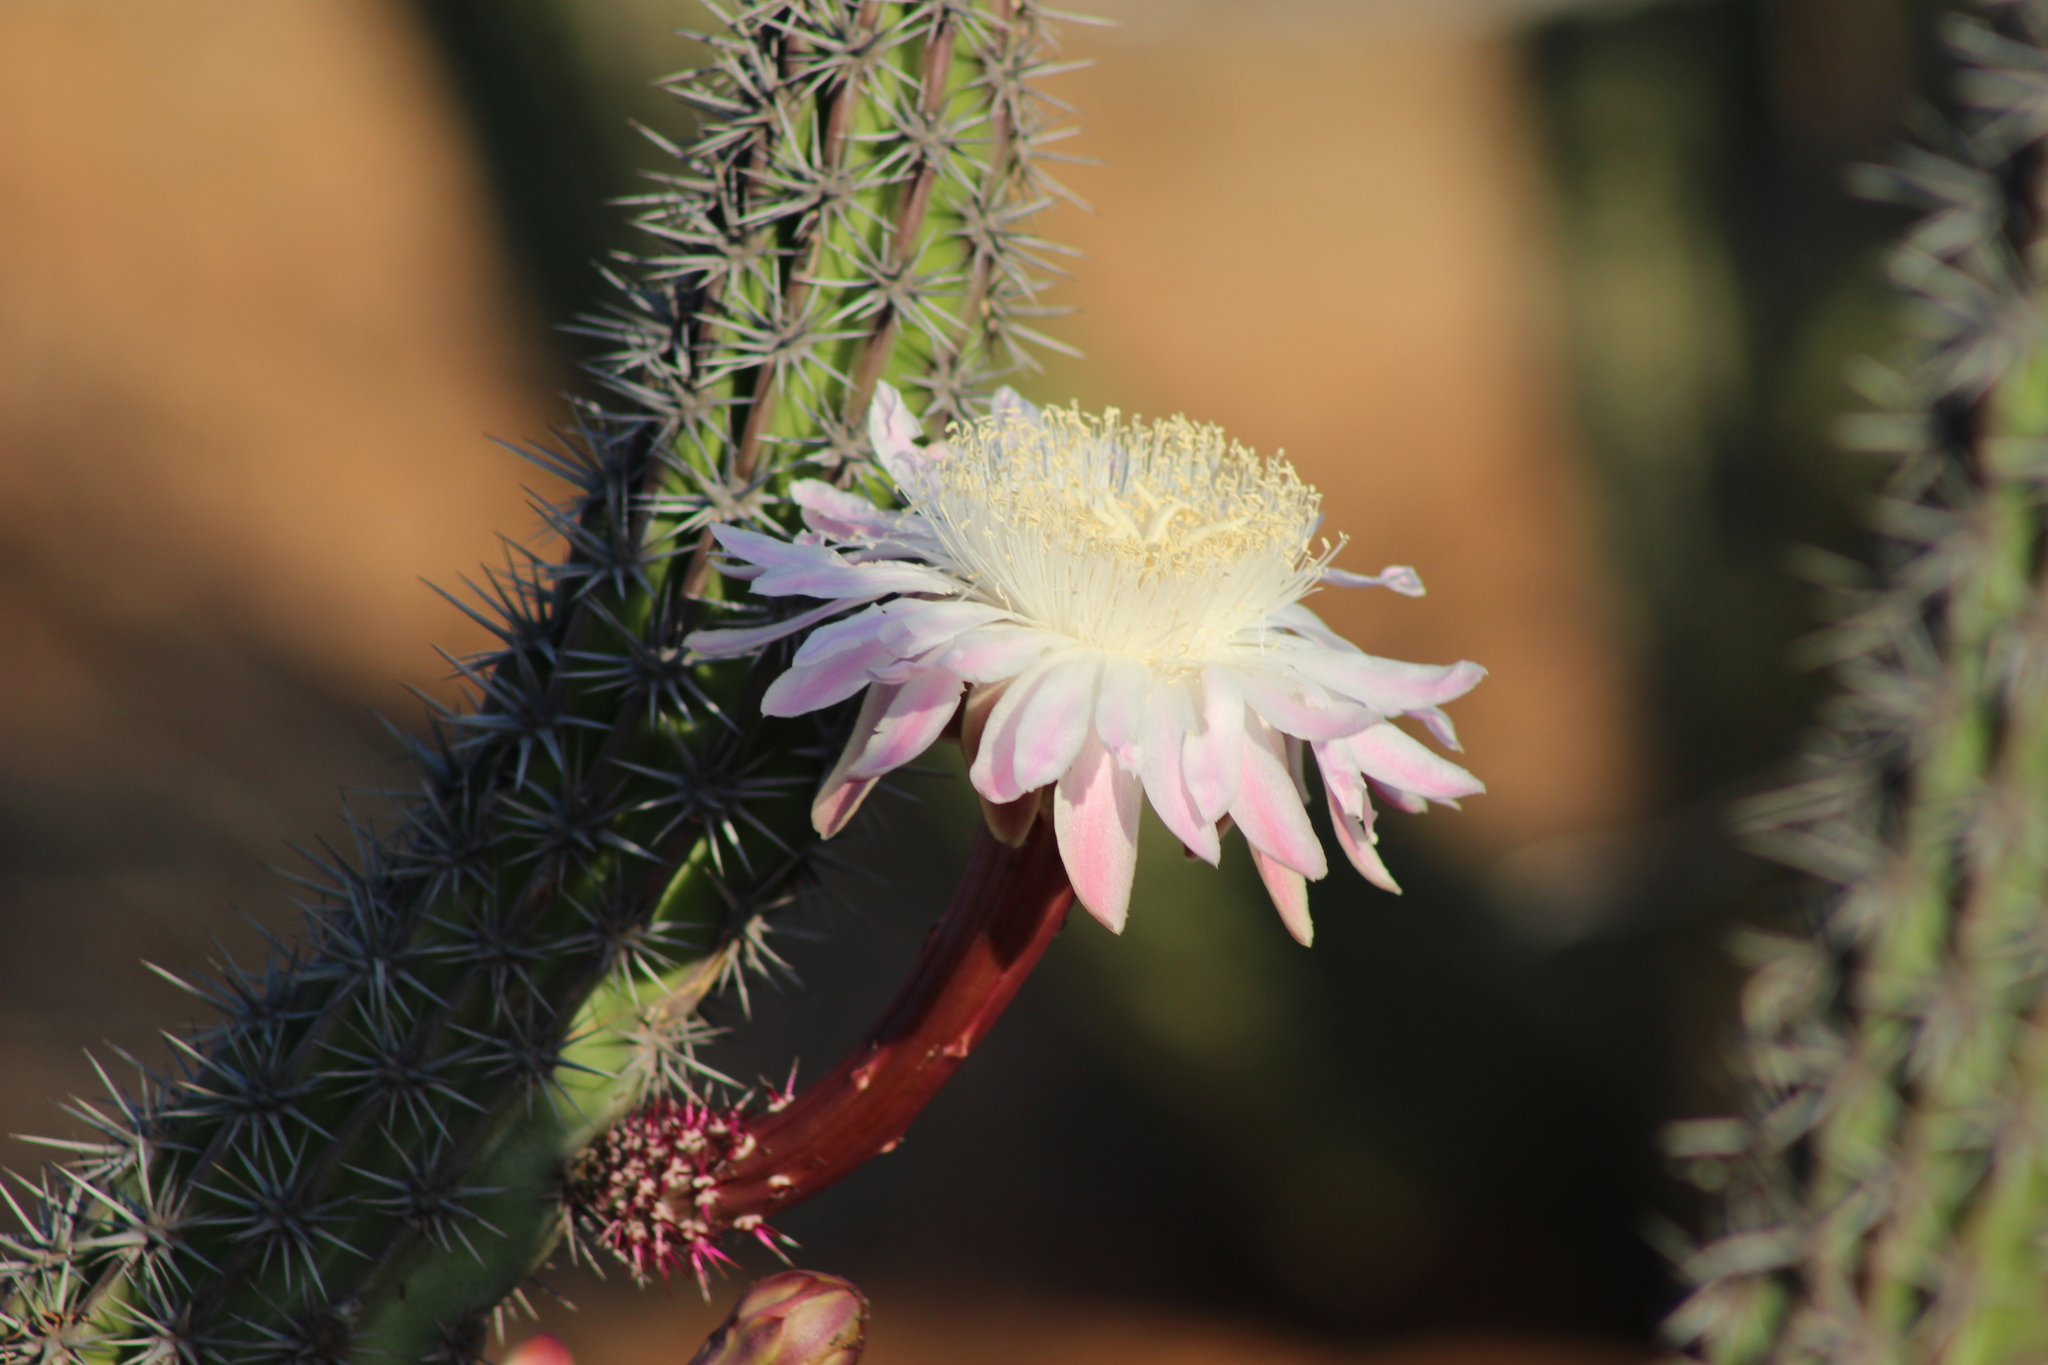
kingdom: Plantae
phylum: Tracheophyta
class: Magnoliopsida
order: Caryophyllales
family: Cactaceae
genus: Stenocereus
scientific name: Stenocereus gummosus
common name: Dagger cactus
